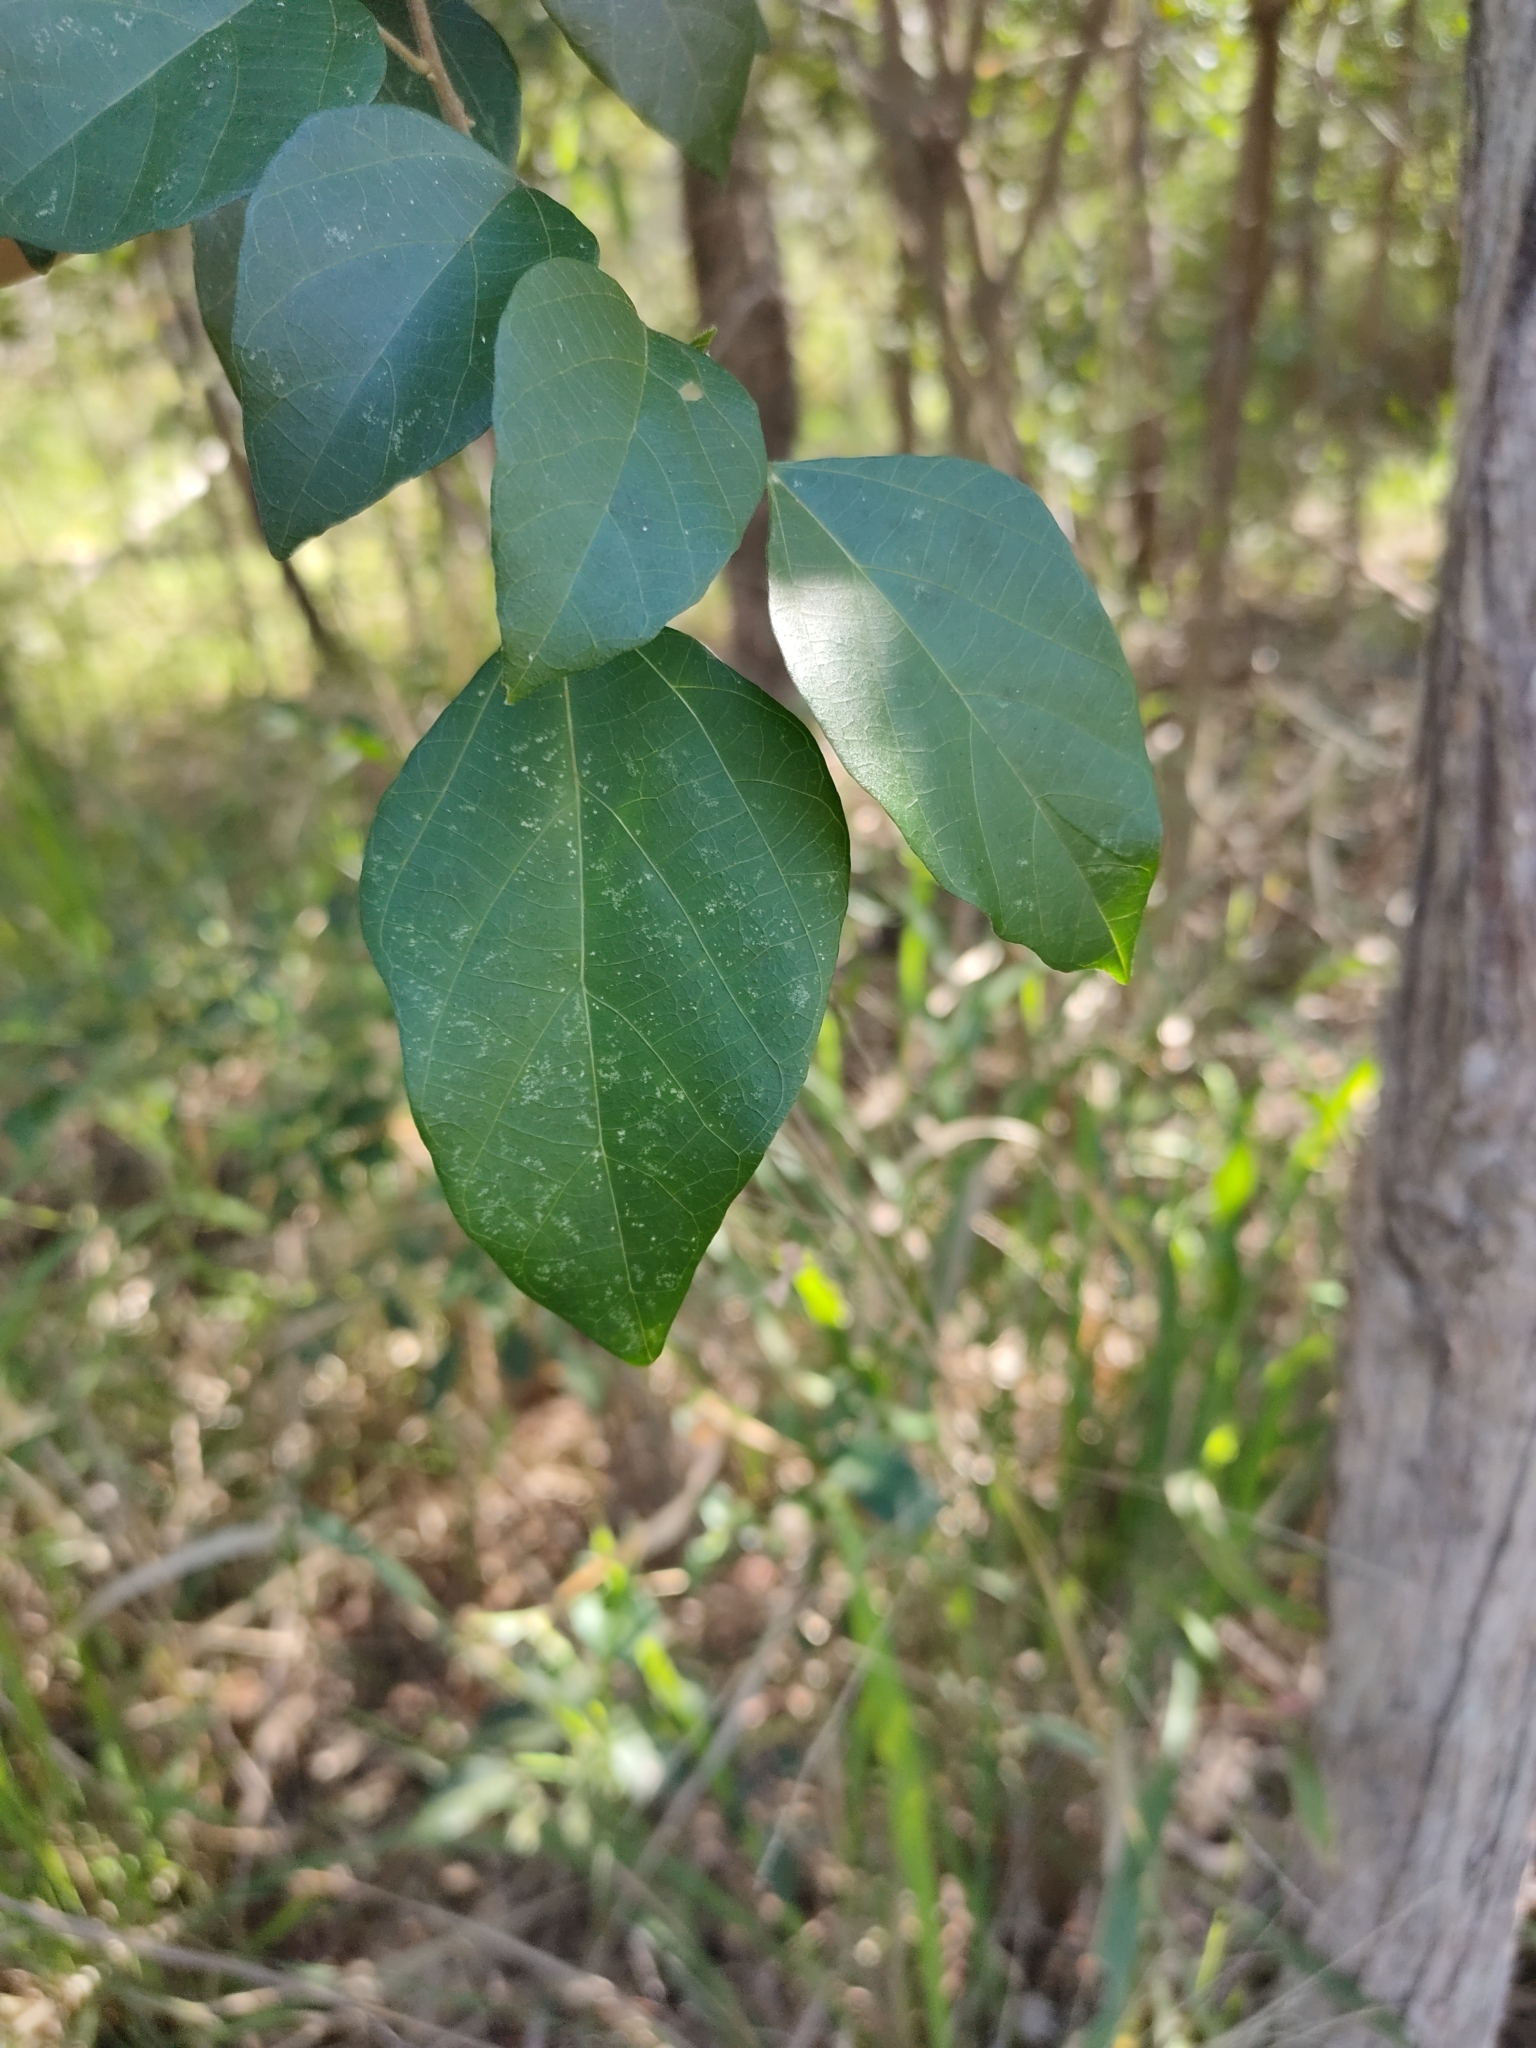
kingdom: Plantae
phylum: Tracheophyta
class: Magnoliopsida
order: Malpighiales
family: Euphorbiaceae
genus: Mallotus
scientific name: Mallotus discolor
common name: White kamala
